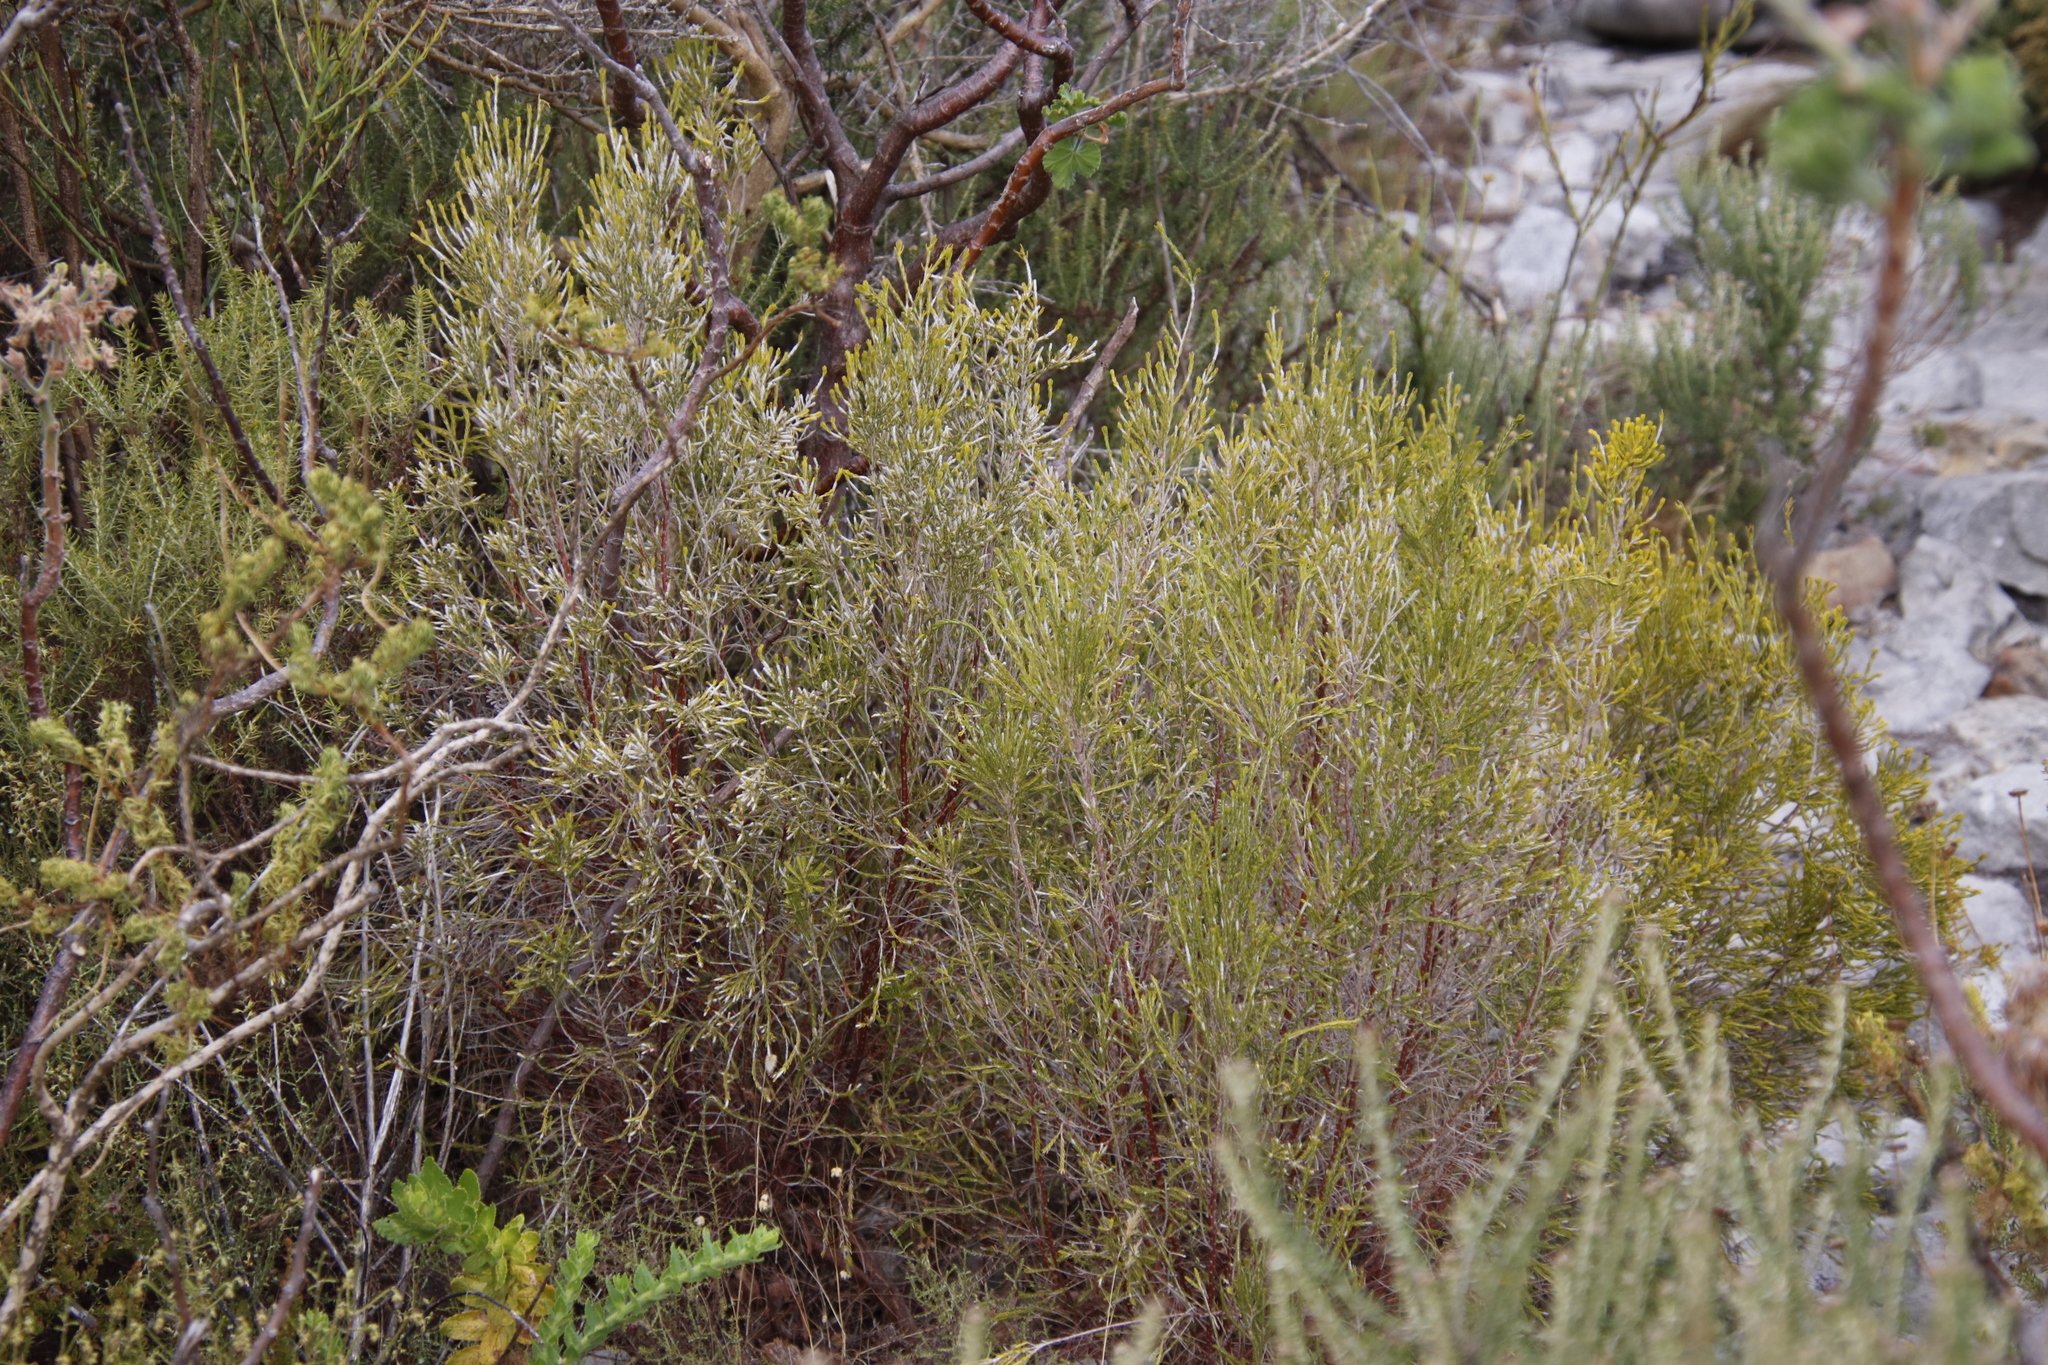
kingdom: Plantae
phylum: Tracheophyta
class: Magnoliopsida
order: Malvales
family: Thymelaeaceae
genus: Passerina
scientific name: Passerina corymbosa
